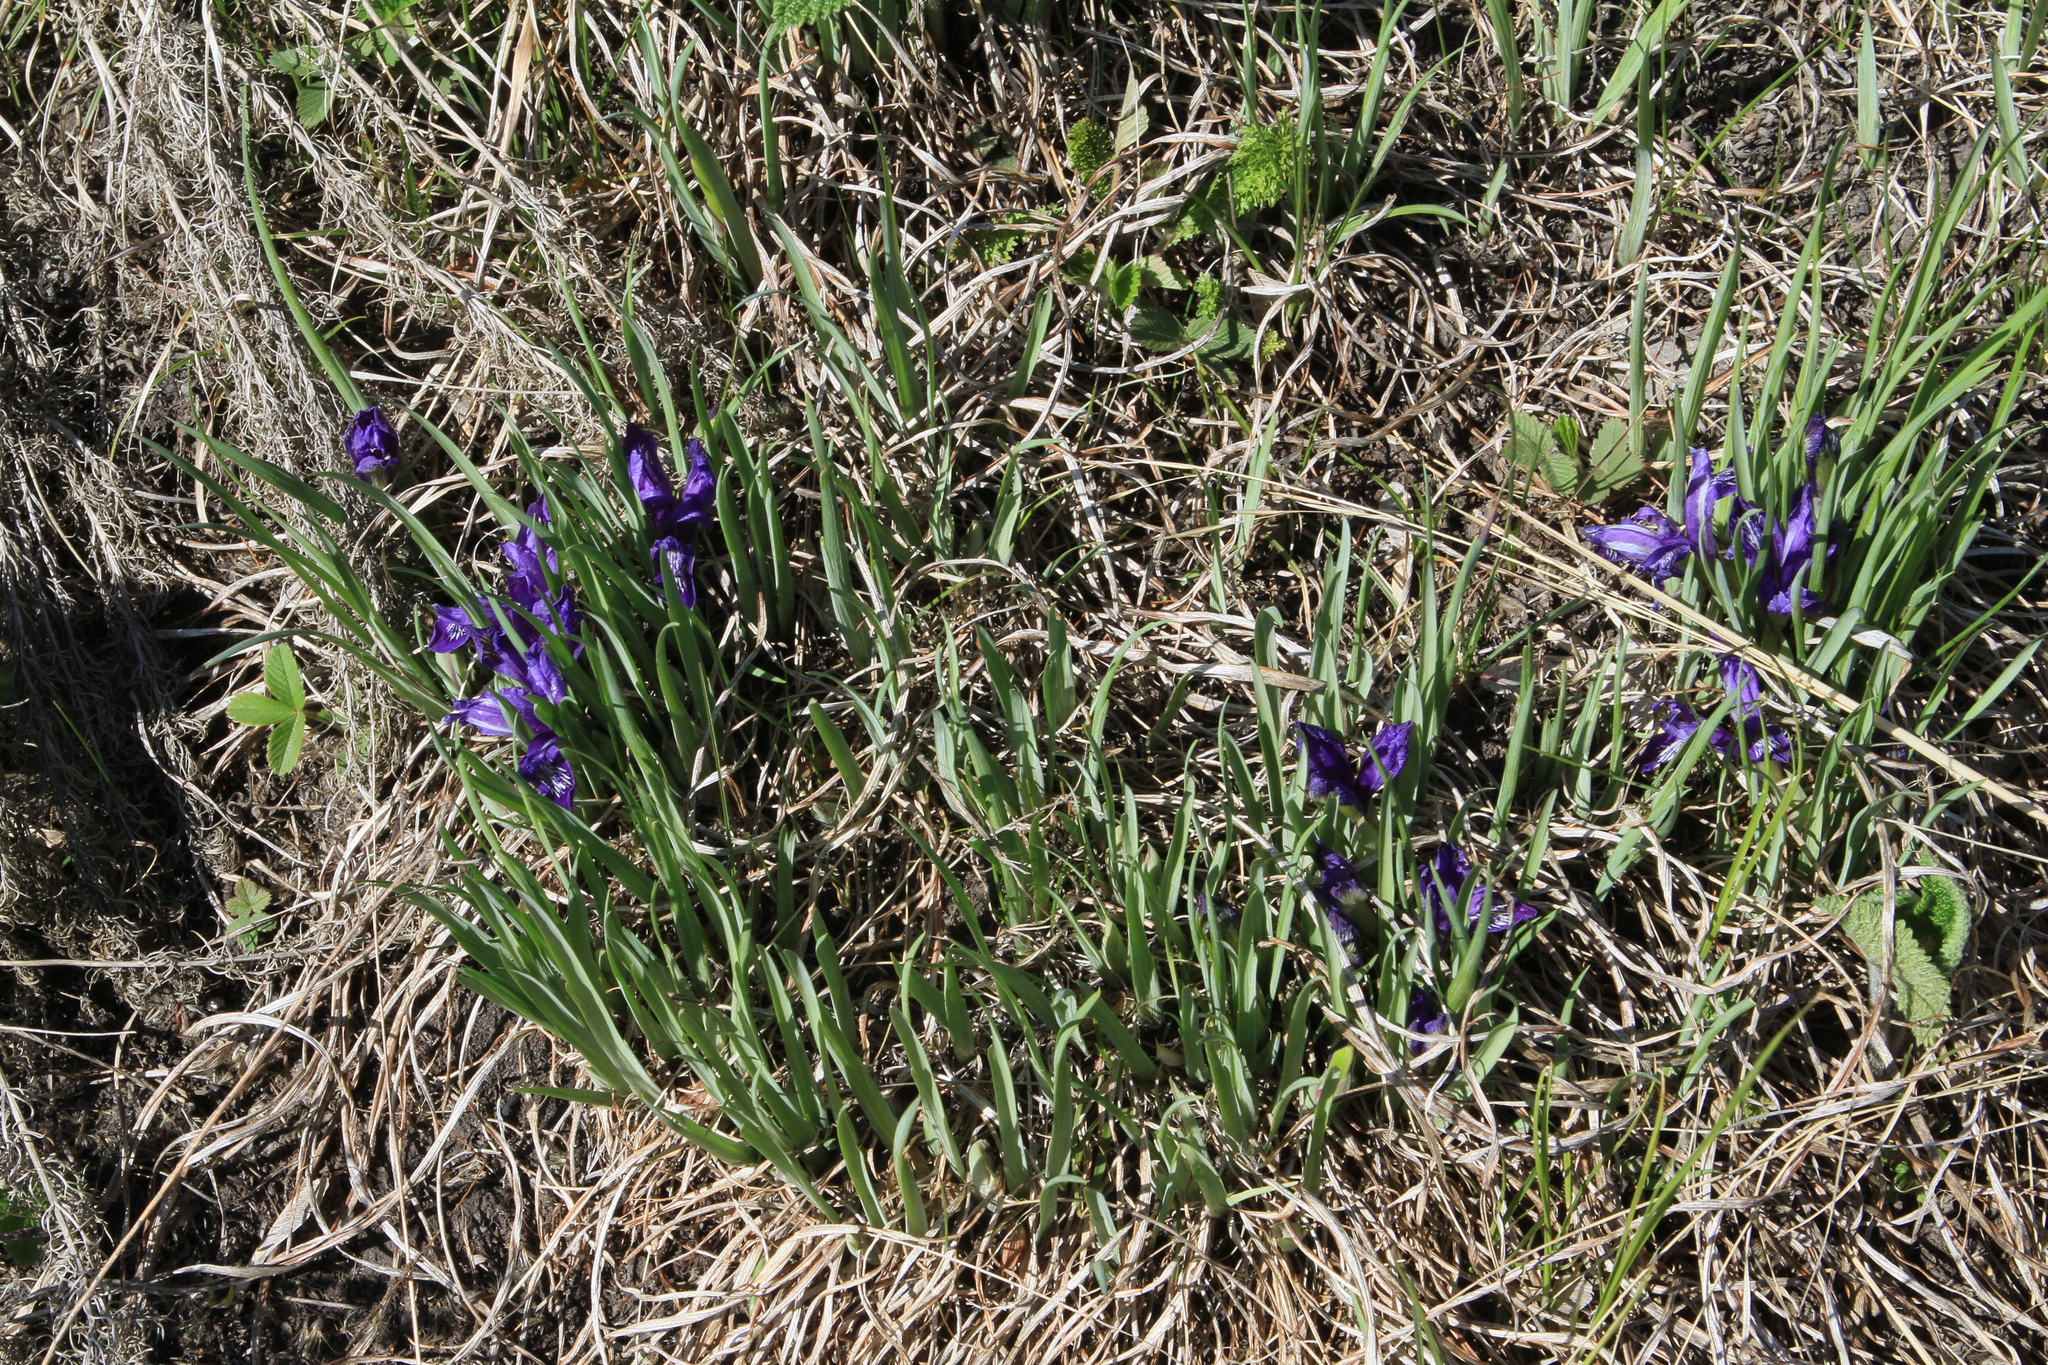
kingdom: Plantae
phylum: Tracheophyta
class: Liliopsida
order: Asparagales
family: Iridaceae
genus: Iris
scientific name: Iris ruthenica
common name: Purple-bract iris
